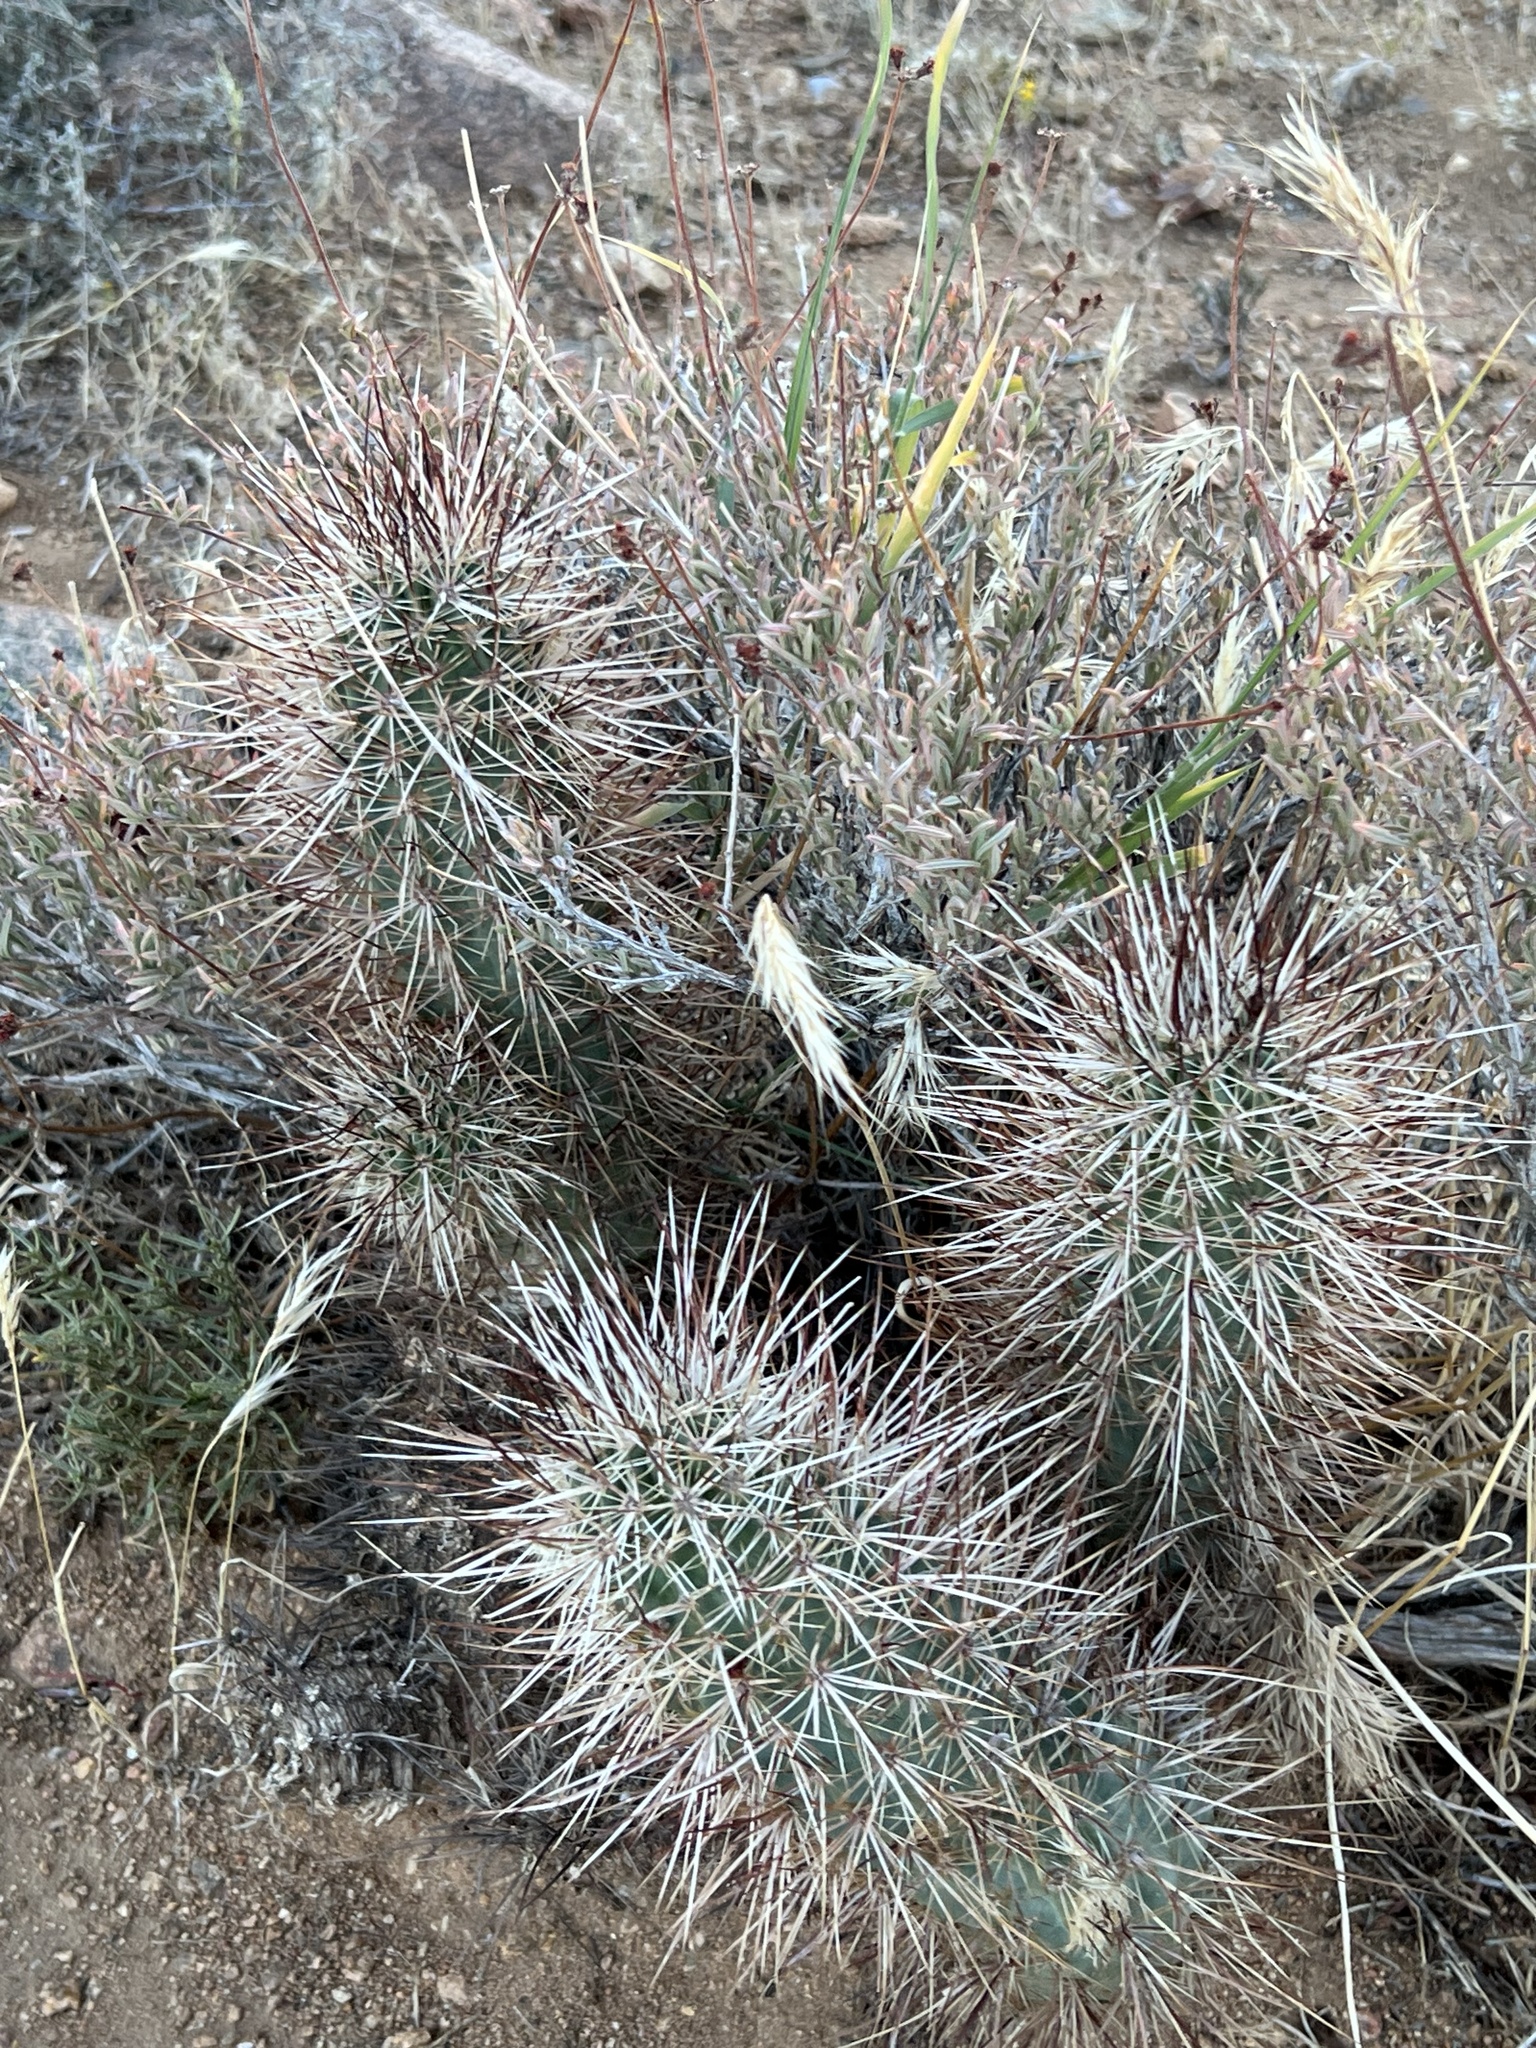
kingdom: Plantae
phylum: Tracheophyta
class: Magnoliopsida
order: Caryophyllales
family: Cactaceae
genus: Echinocereus
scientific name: Echinocereus engelmannii
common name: Engelmann's hedgehog cactus
